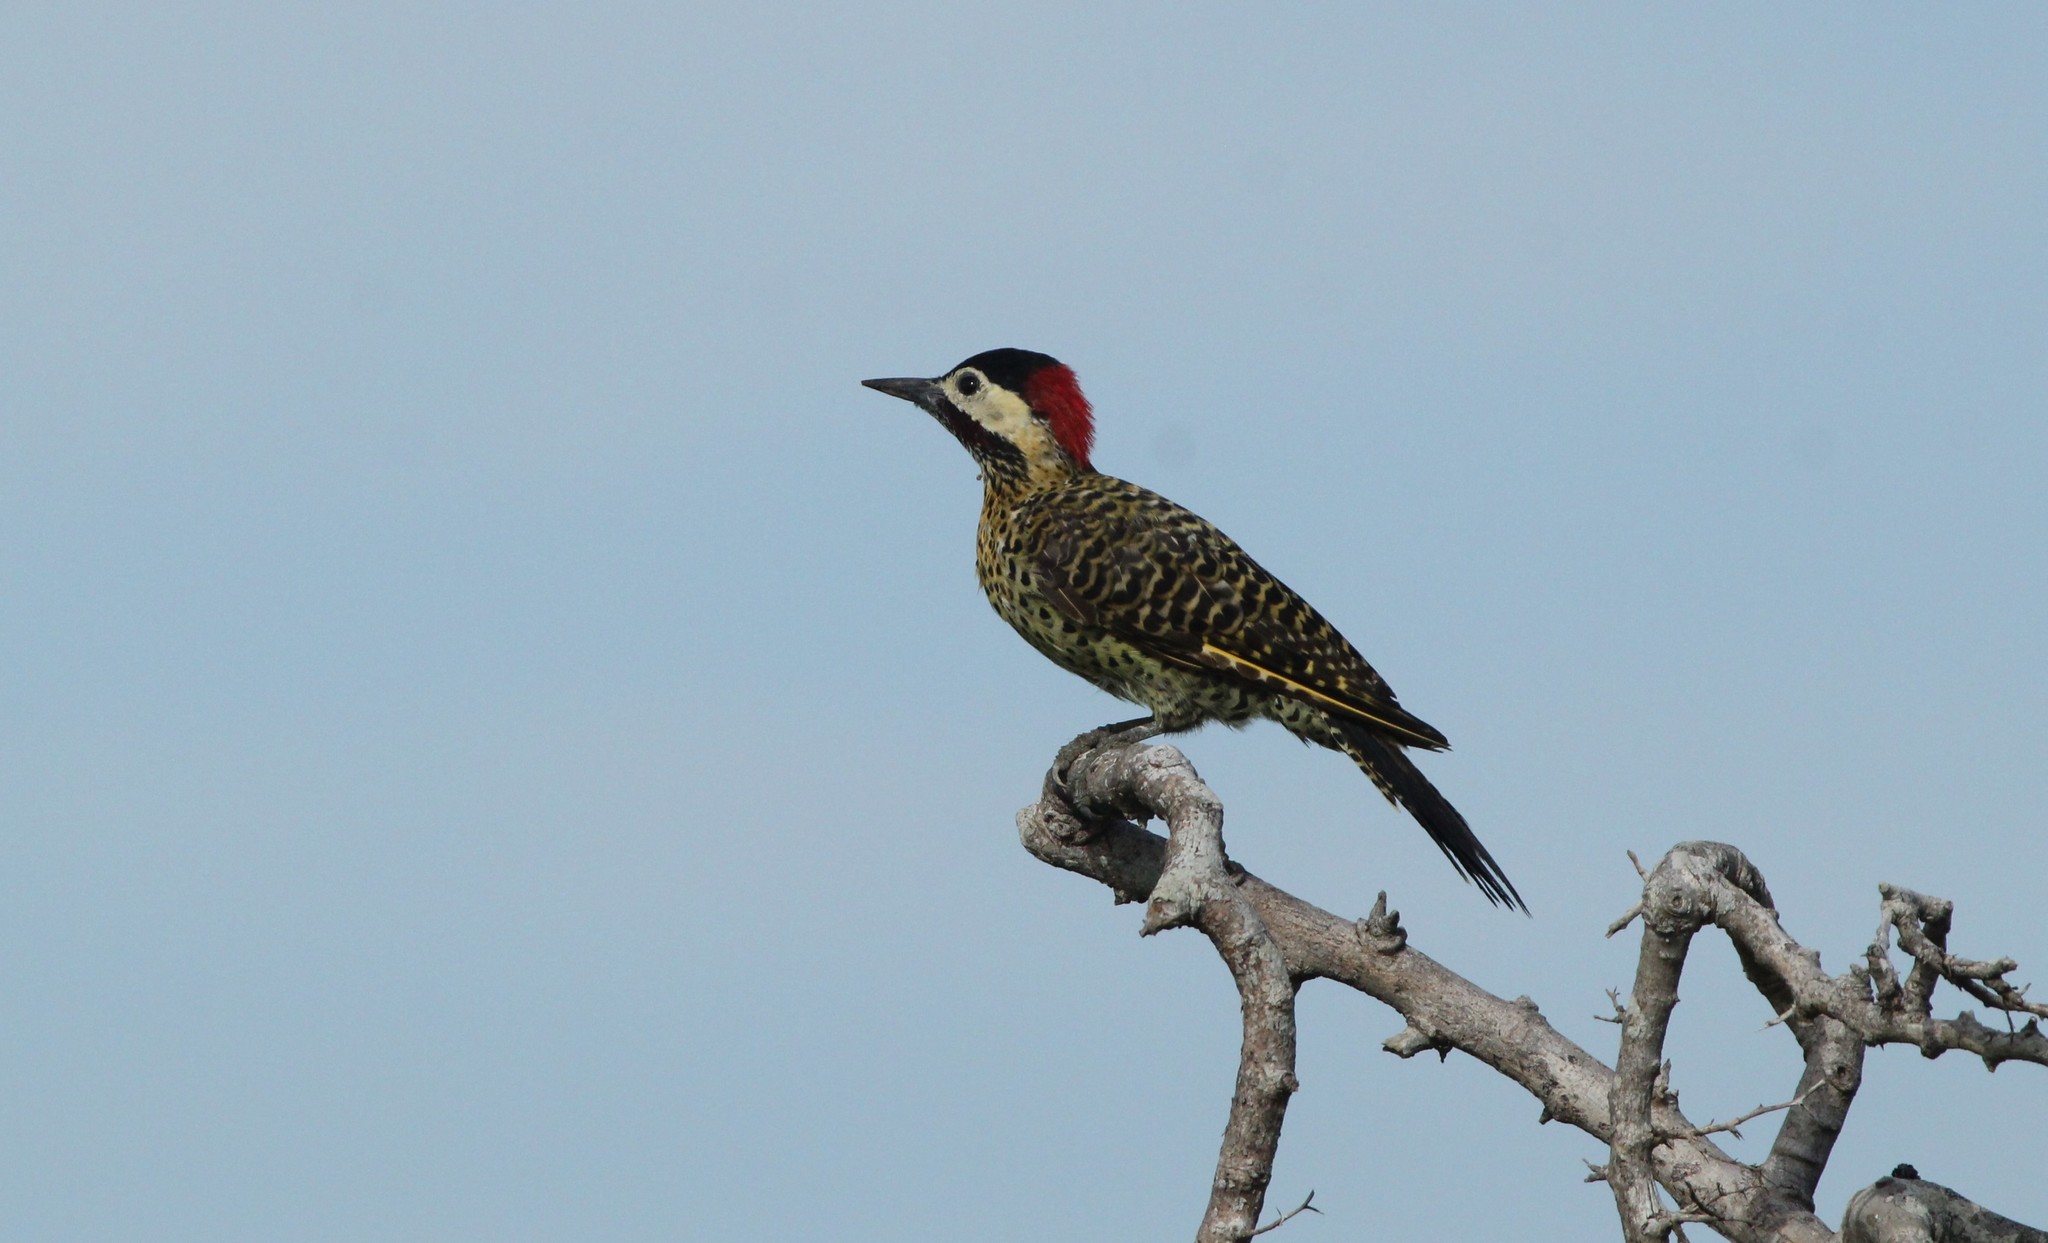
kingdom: Animalia
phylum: Chordata
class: Aves
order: Piciformes
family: Picidae
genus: Colaptes
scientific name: Colaptes melanochloros
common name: Green-barred woodpecker
